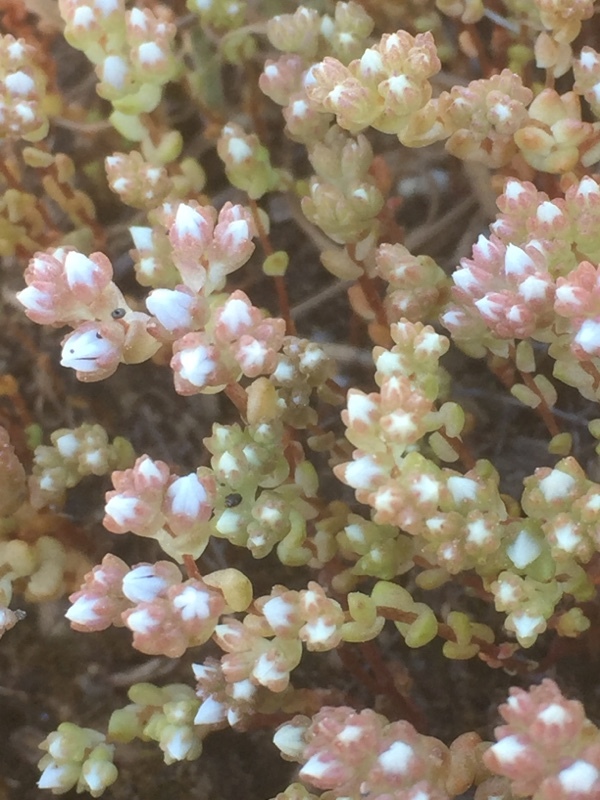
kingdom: Plantae
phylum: Tracheophyta
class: Magnoliopsida
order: Saxifragales
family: Crassulaceae
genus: Sedum
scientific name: Sedum arenarium
